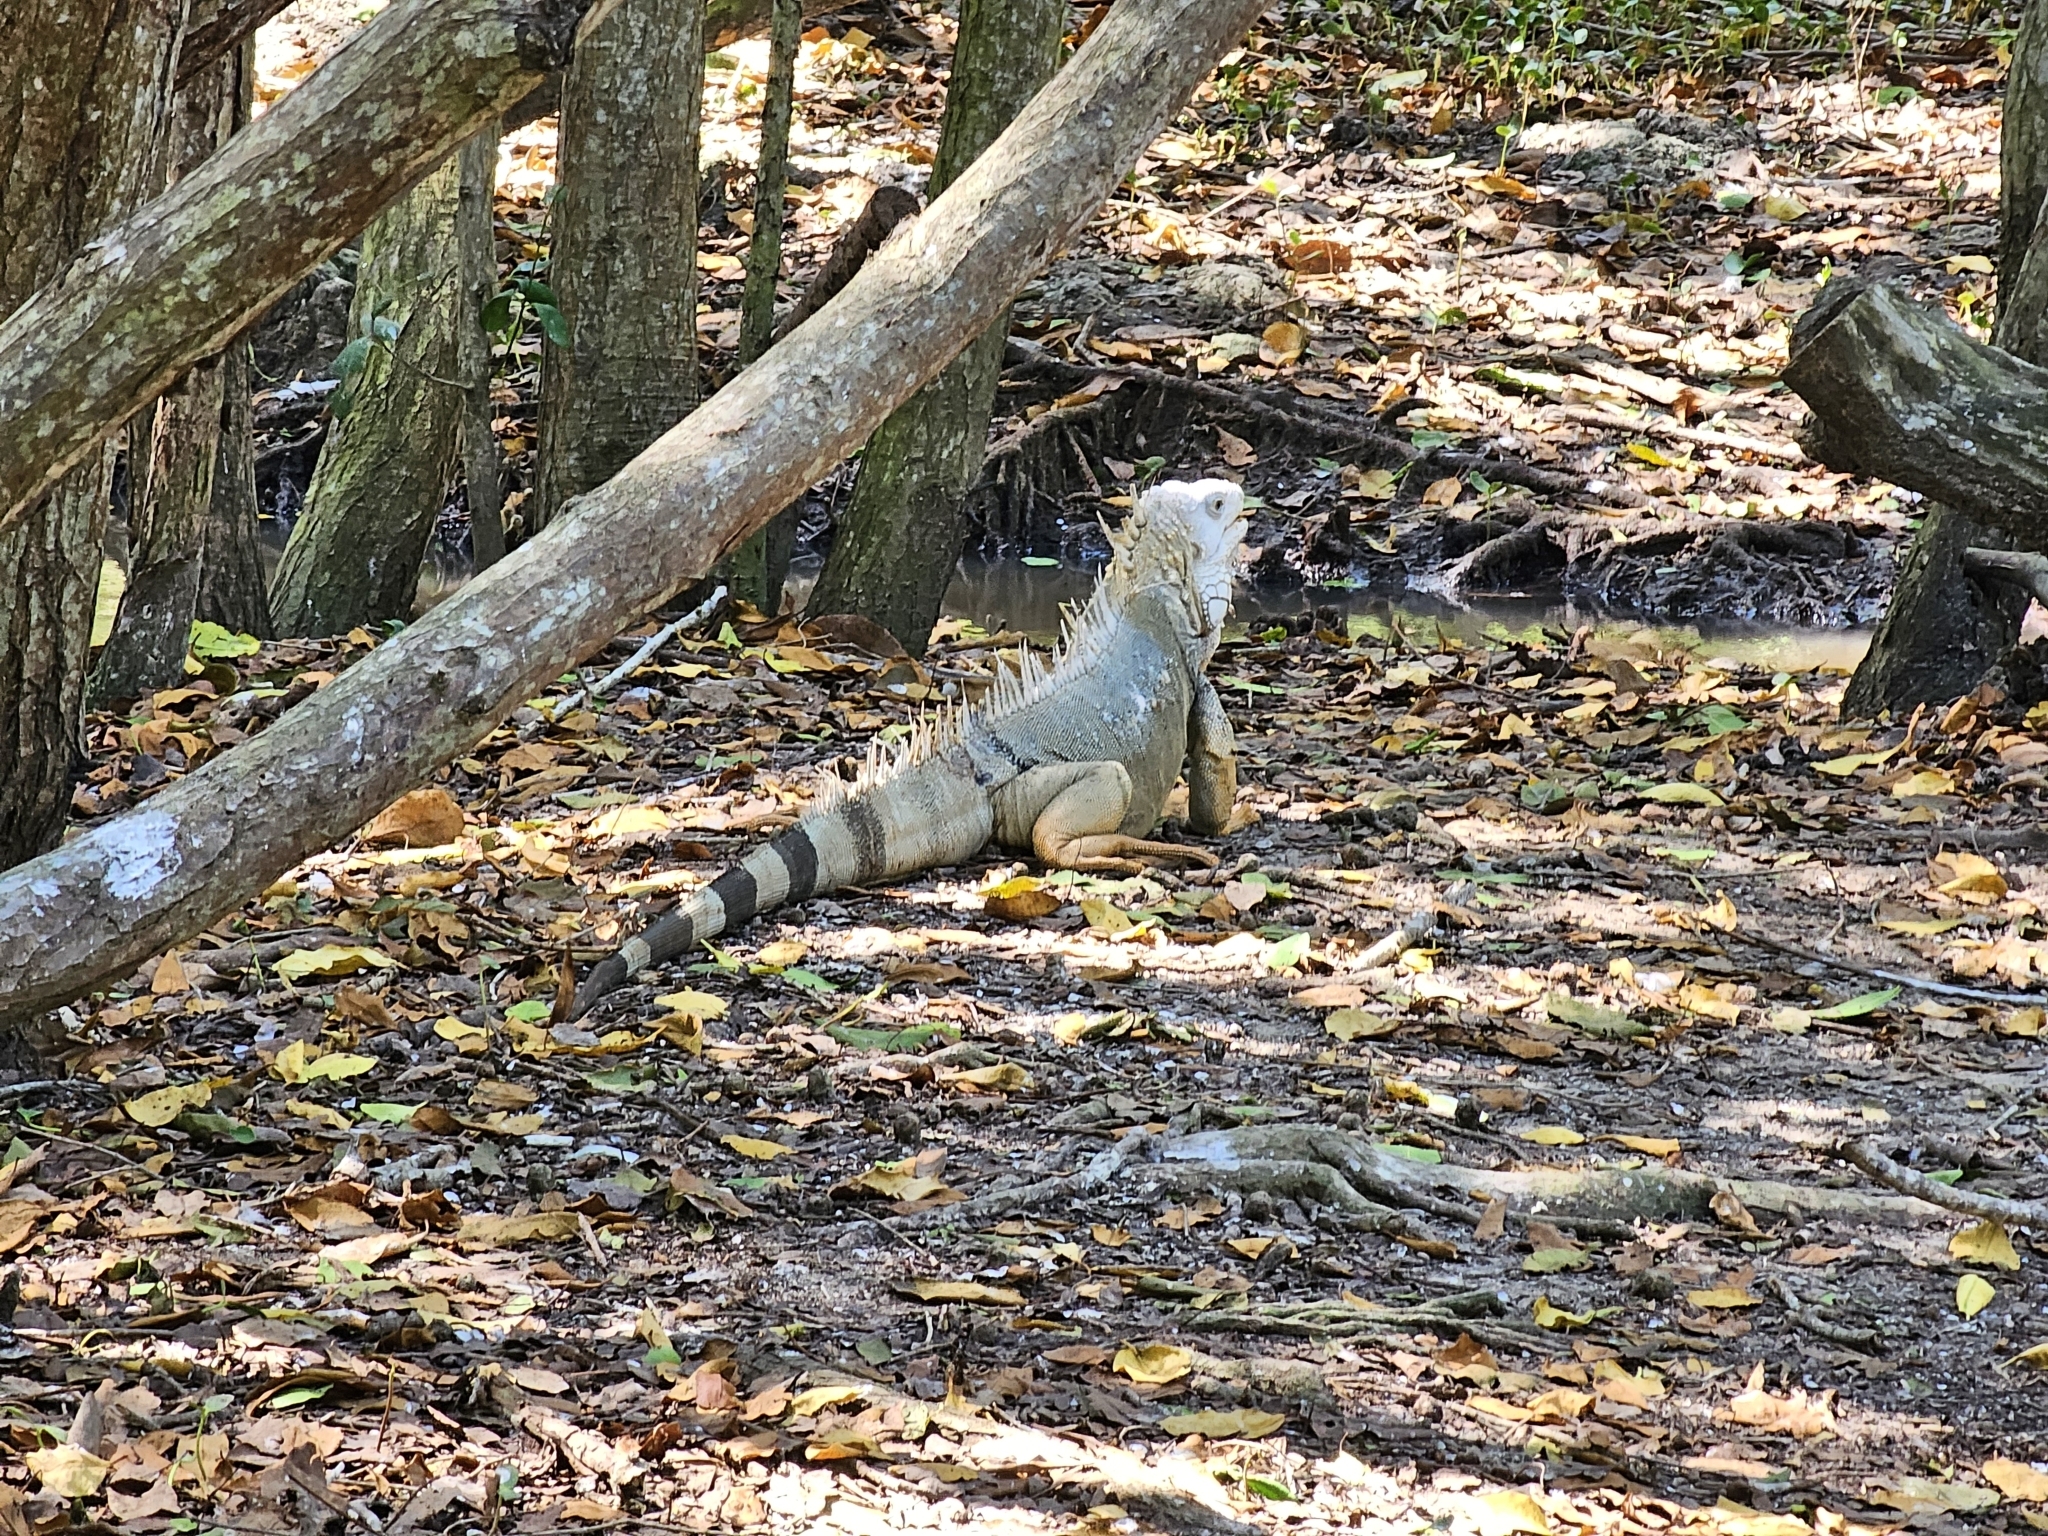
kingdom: Animalia
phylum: Chordata
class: Squamata
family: Iguanidae
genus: Iguana
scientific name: Iguana iguana
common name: Green iguana
